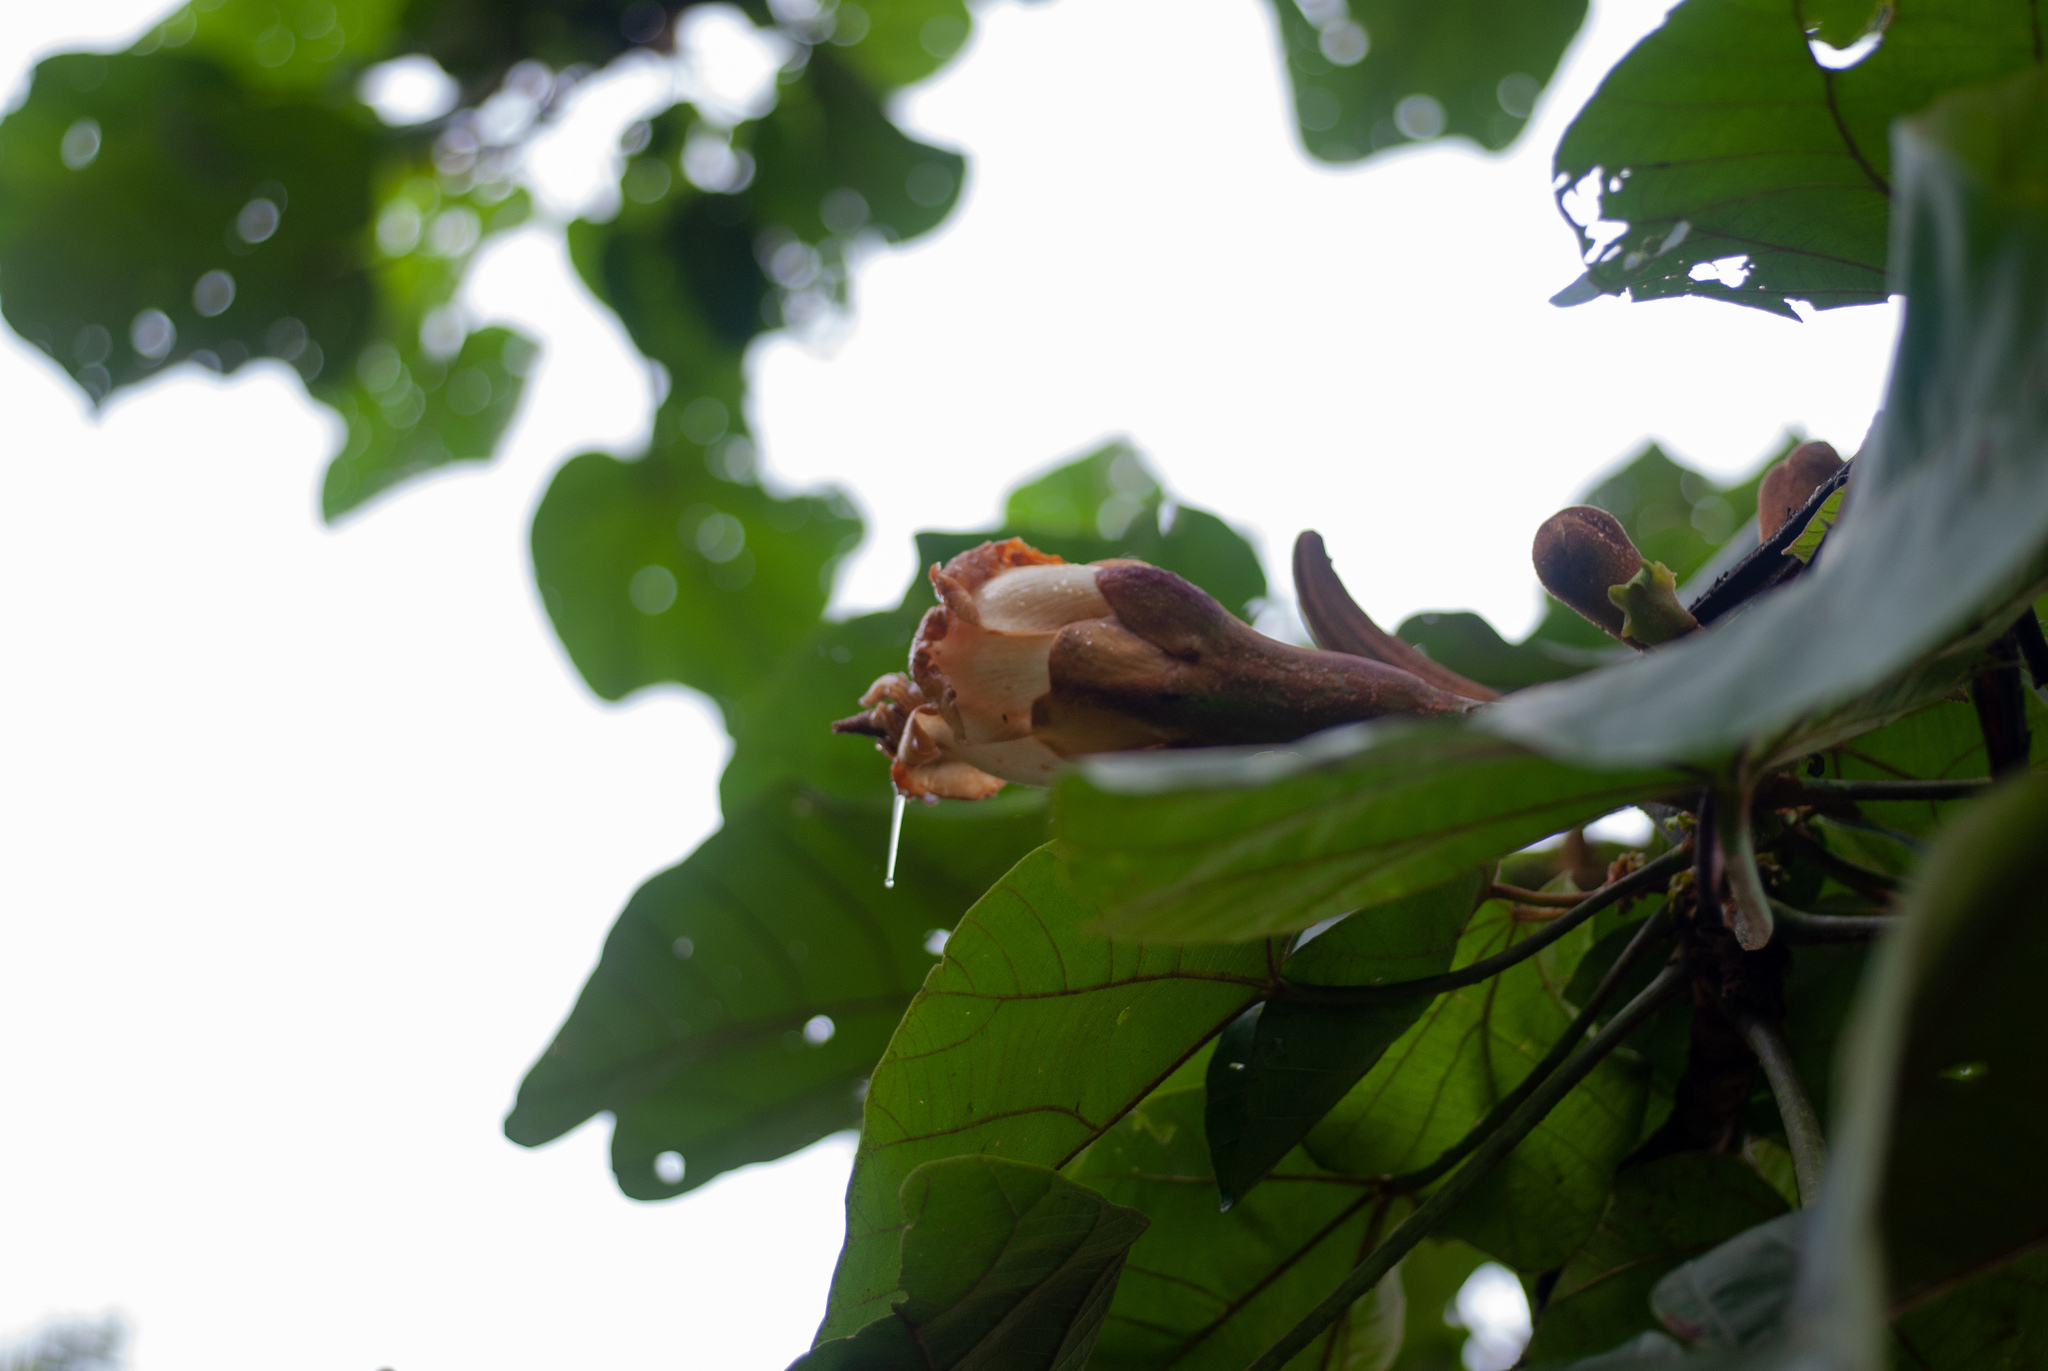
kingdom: Plantae
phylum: Tracheophyta
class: Magnoliopsida
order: Malvales
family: Malvaceae
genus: Ochroma
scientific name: Ochroma pyramidale
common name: Balsa
